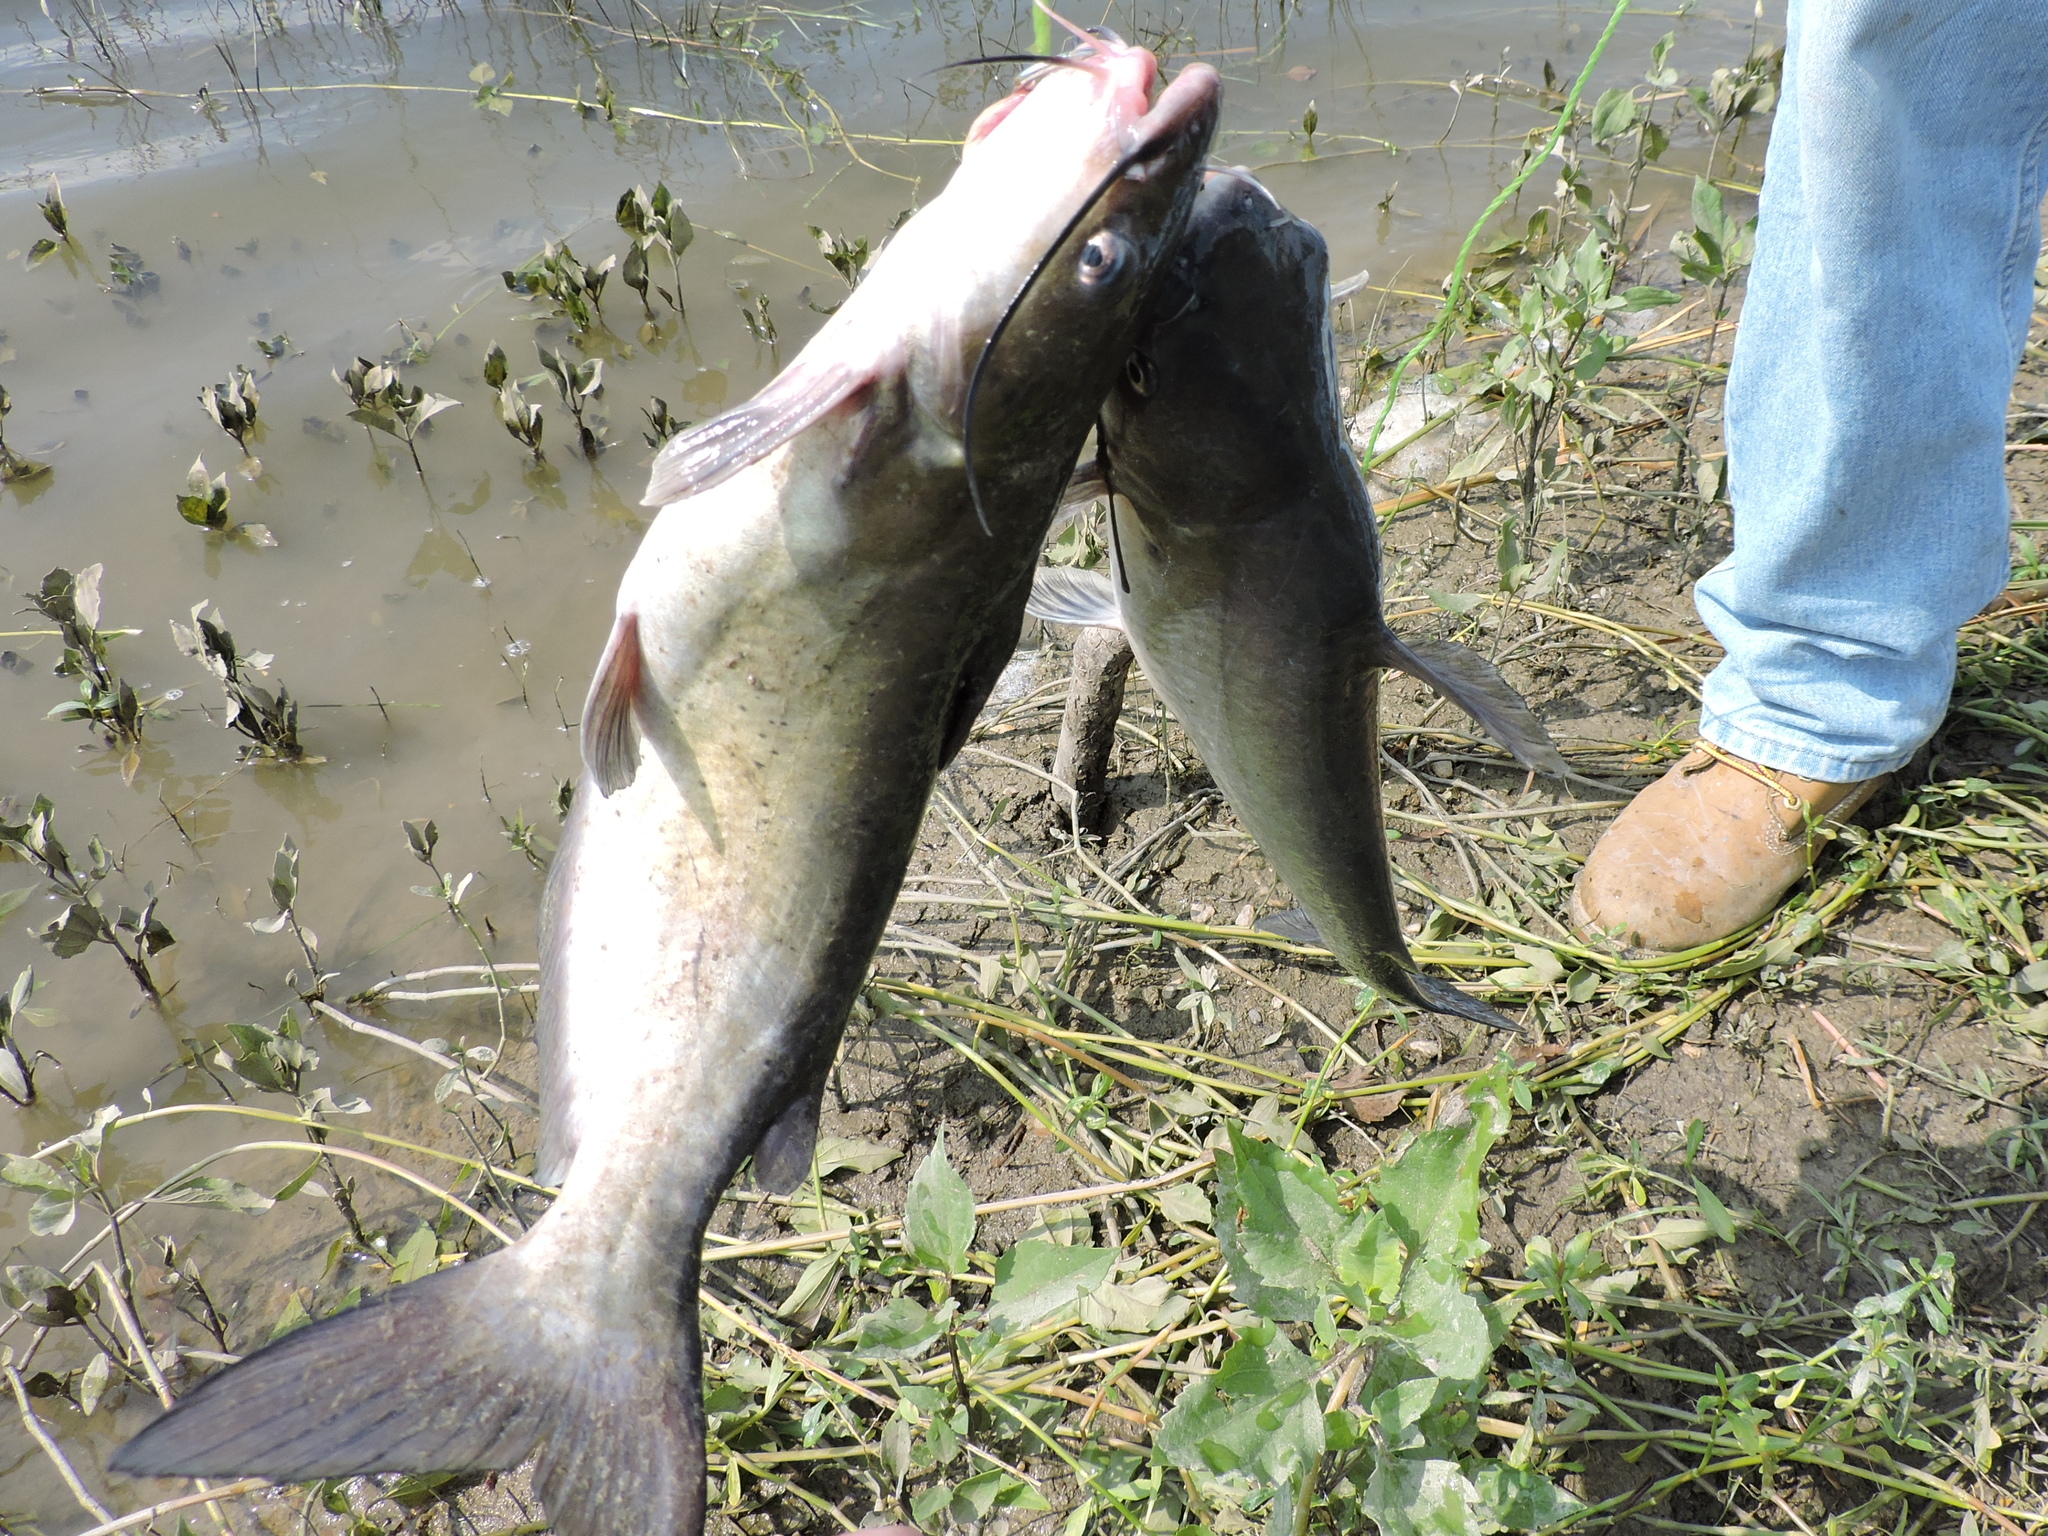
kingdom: Animalia
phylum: Chordata
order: Siluriformes
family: Ictaluridae
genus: Ictalurus
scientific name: Ictalurus punctatus
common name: Channel catfish
